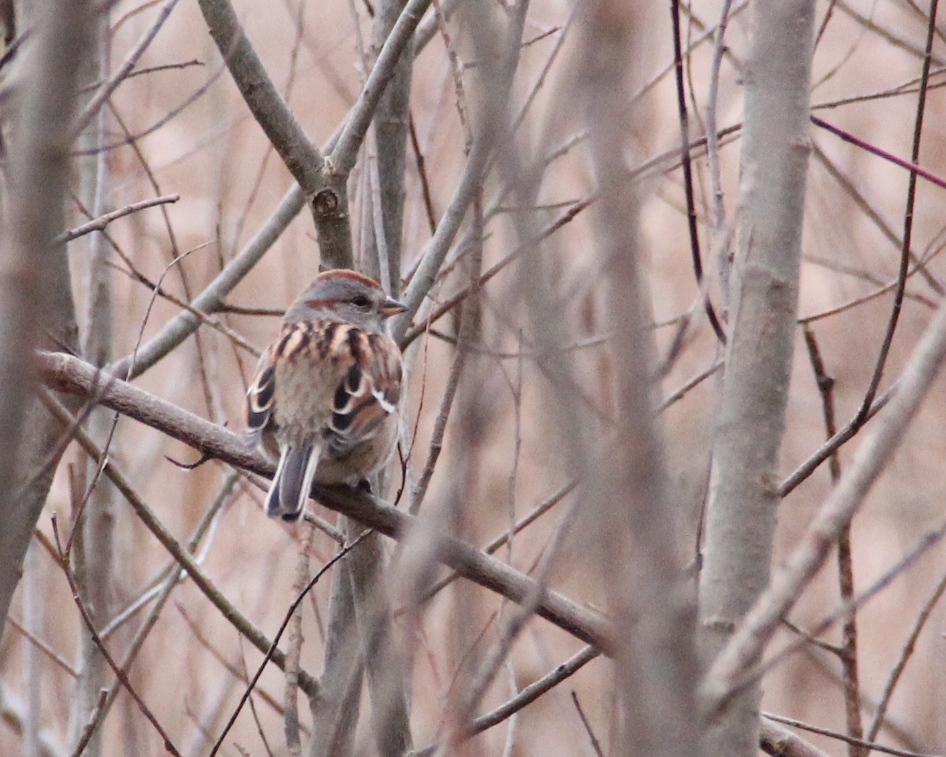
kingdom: Animalia
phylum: Chordata
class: Aves
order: Passeriformes
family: Passerellidae
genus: Spizelloides
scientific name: Spizelloides arborea
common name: American tree sparrow
